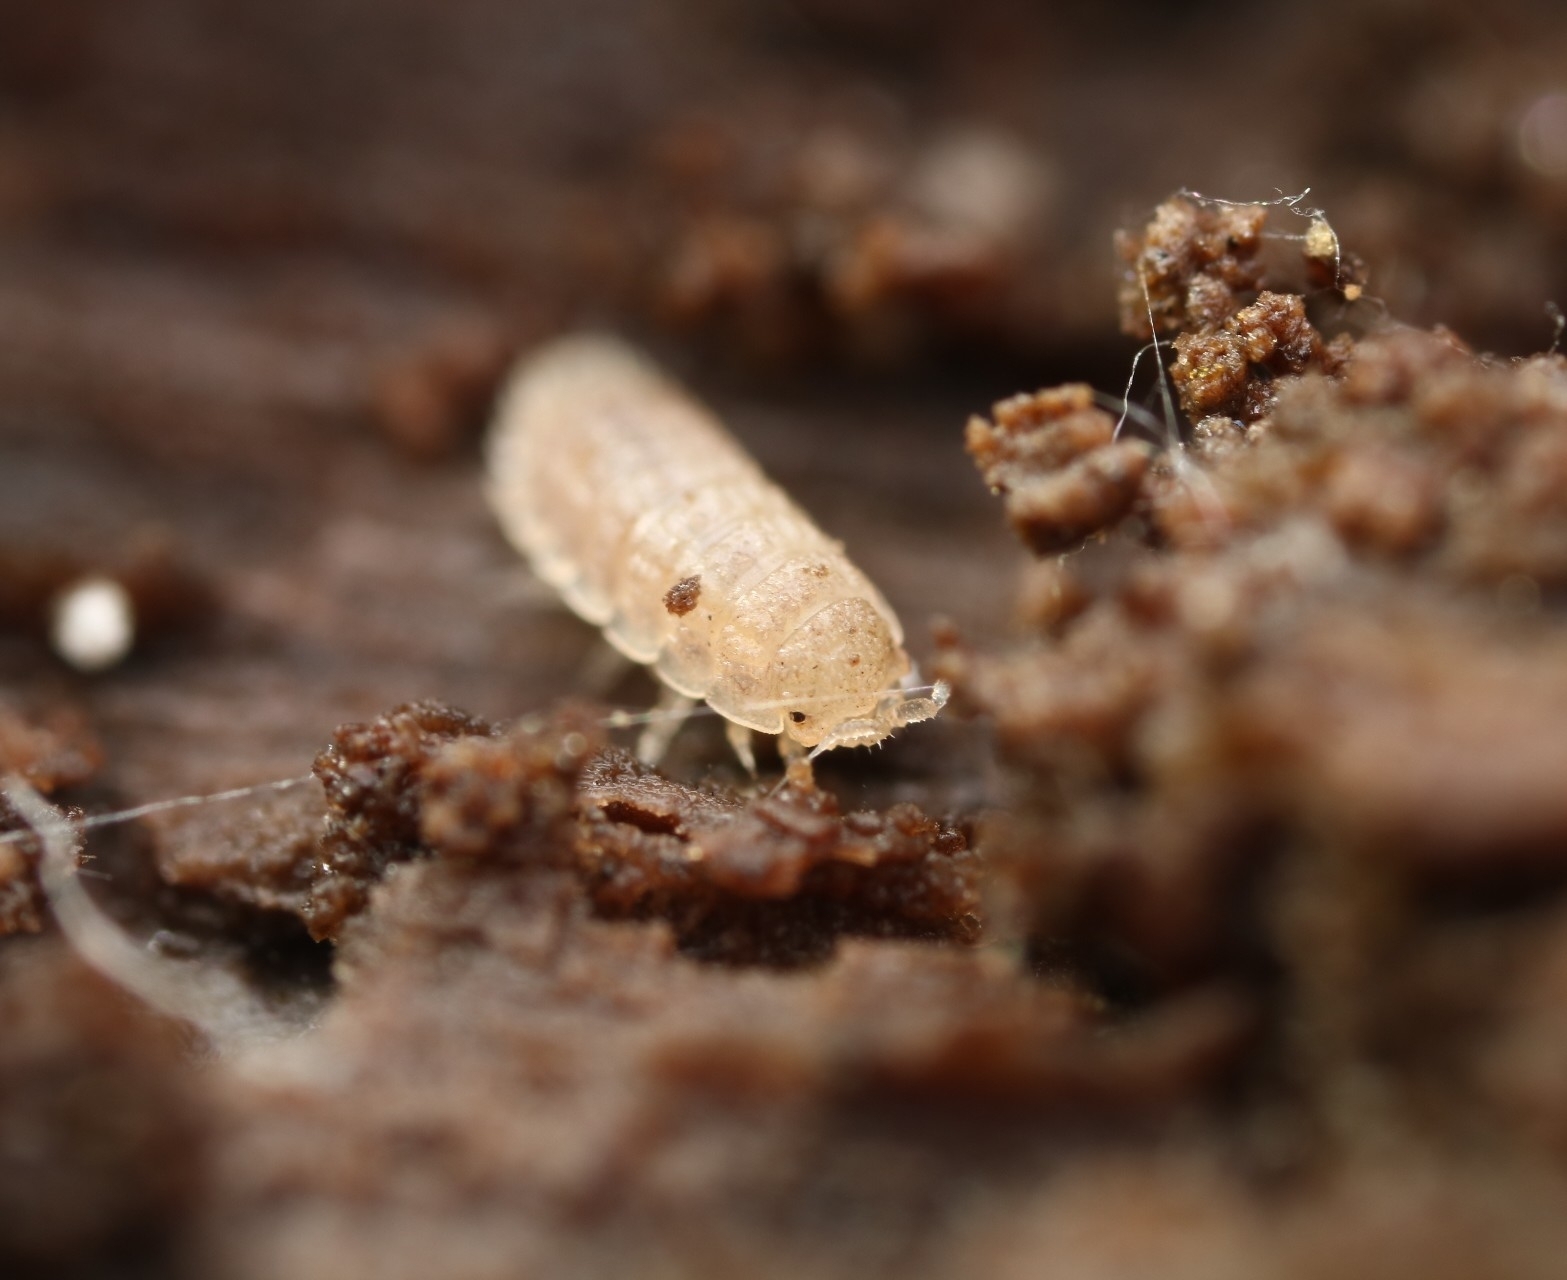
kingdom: Animalia
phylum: Arthropoda
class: Malacostraca
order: Isopoda
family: Trichoniscidae
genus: Haplophthalmus
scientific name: Haplophthalmus danicus
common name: Pillbug
